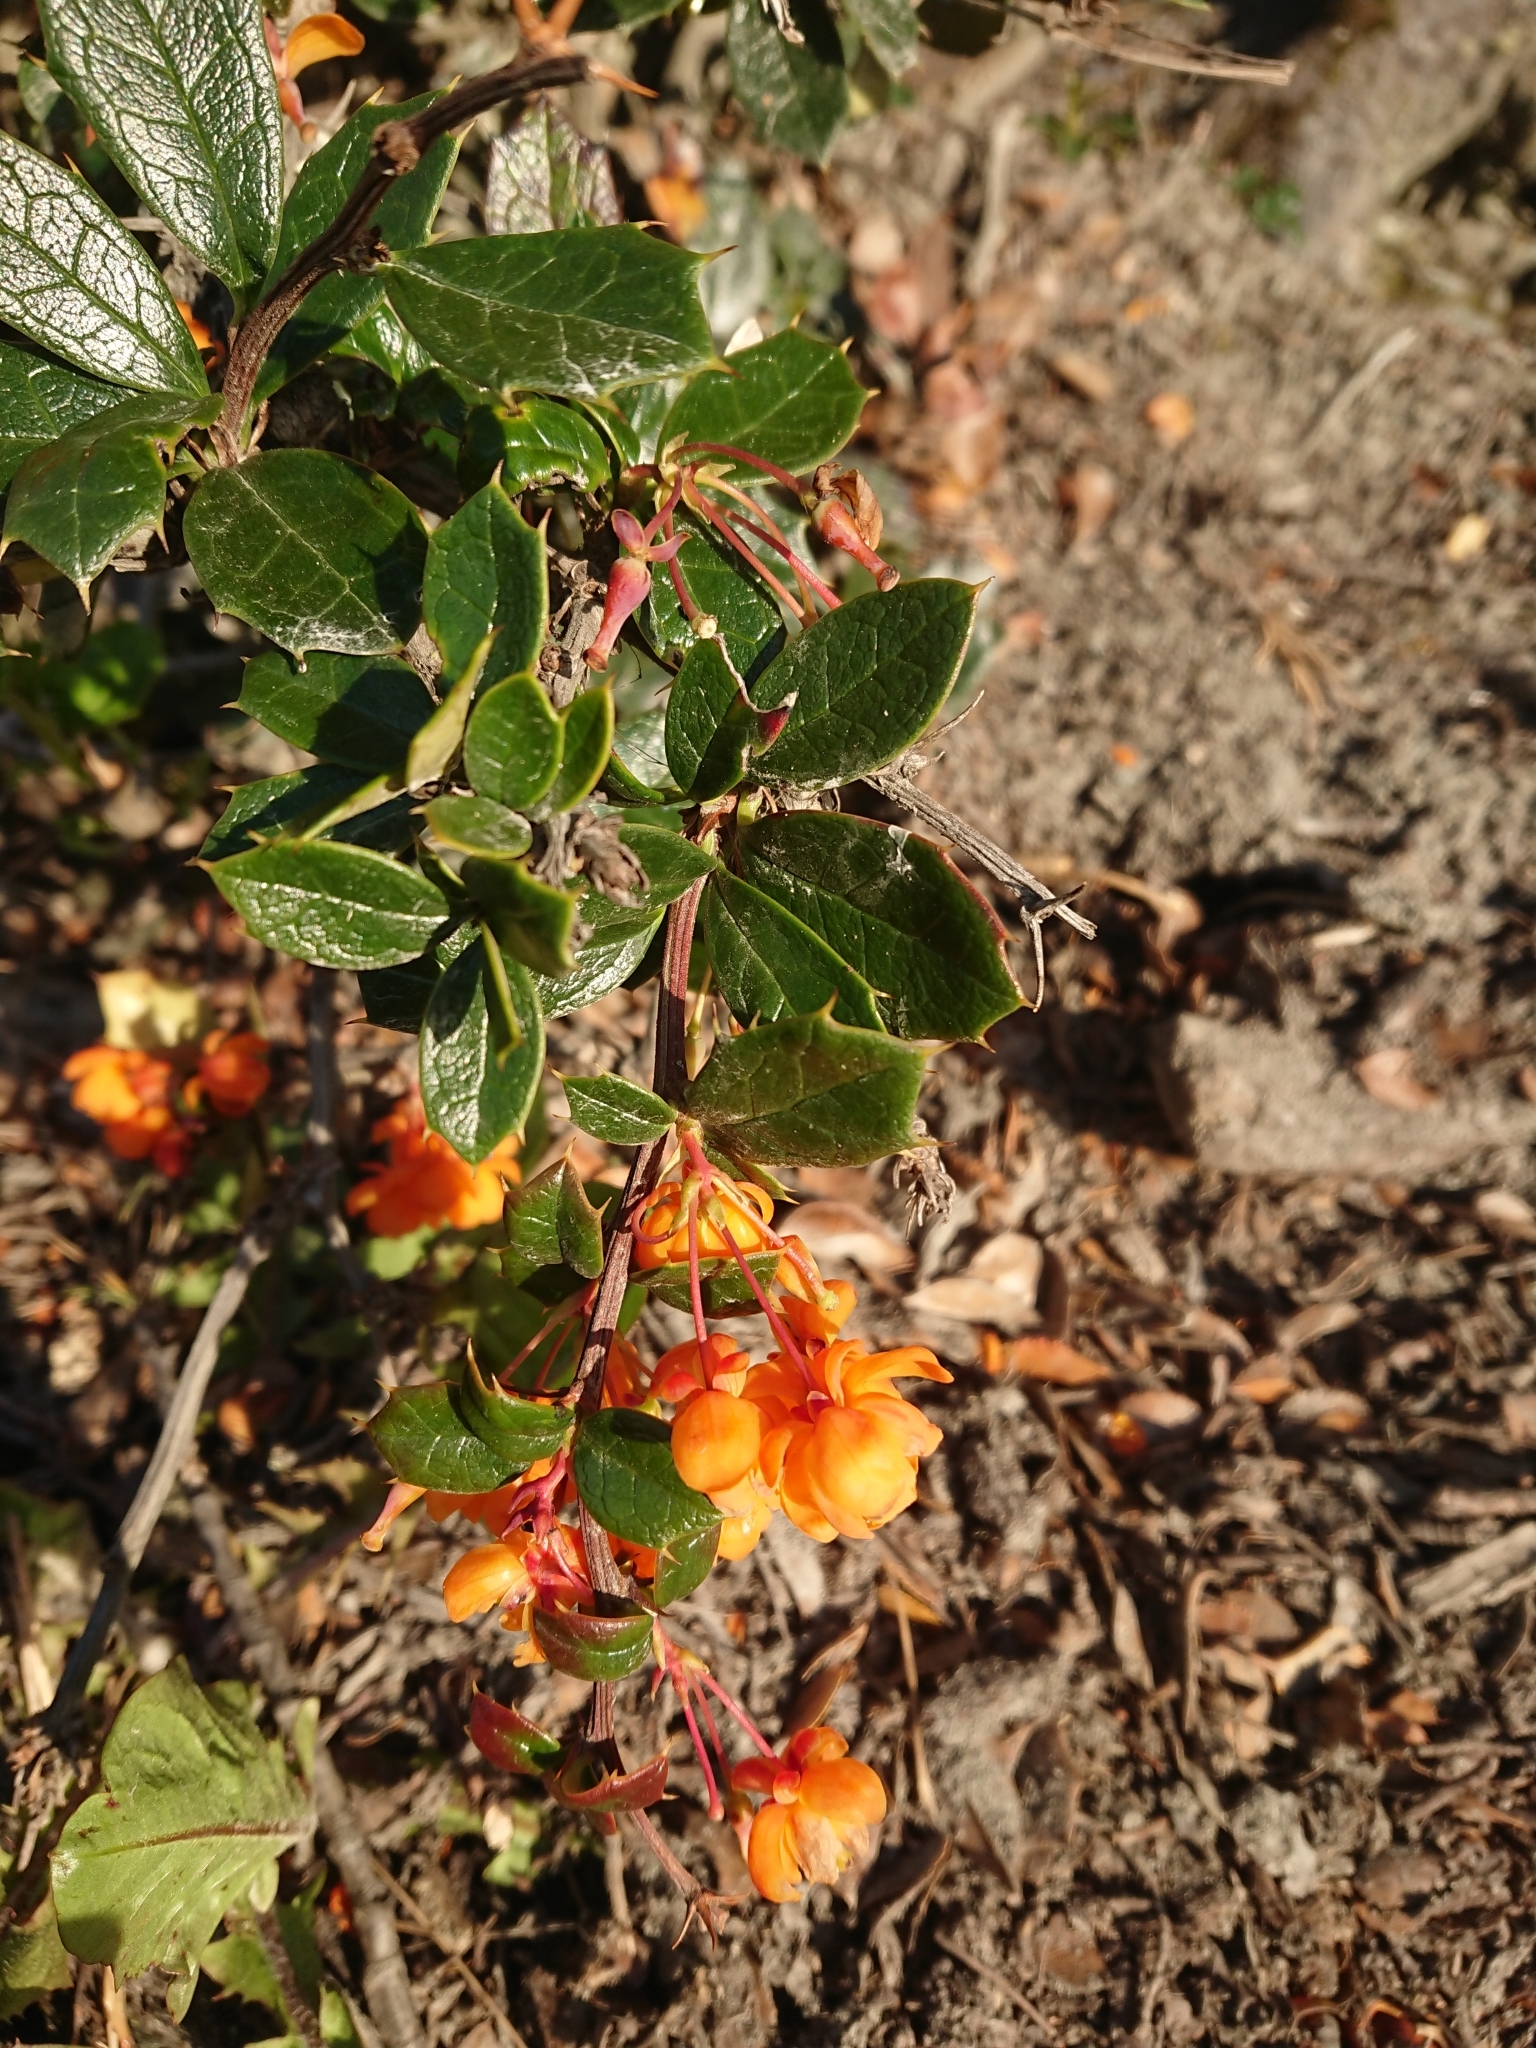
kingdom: Plantae
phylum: Tracheophyta
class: Magnoliopsida
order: Ranunculales
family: Berberidaceae
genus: Berberis
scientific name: Berberis ilicifolia
